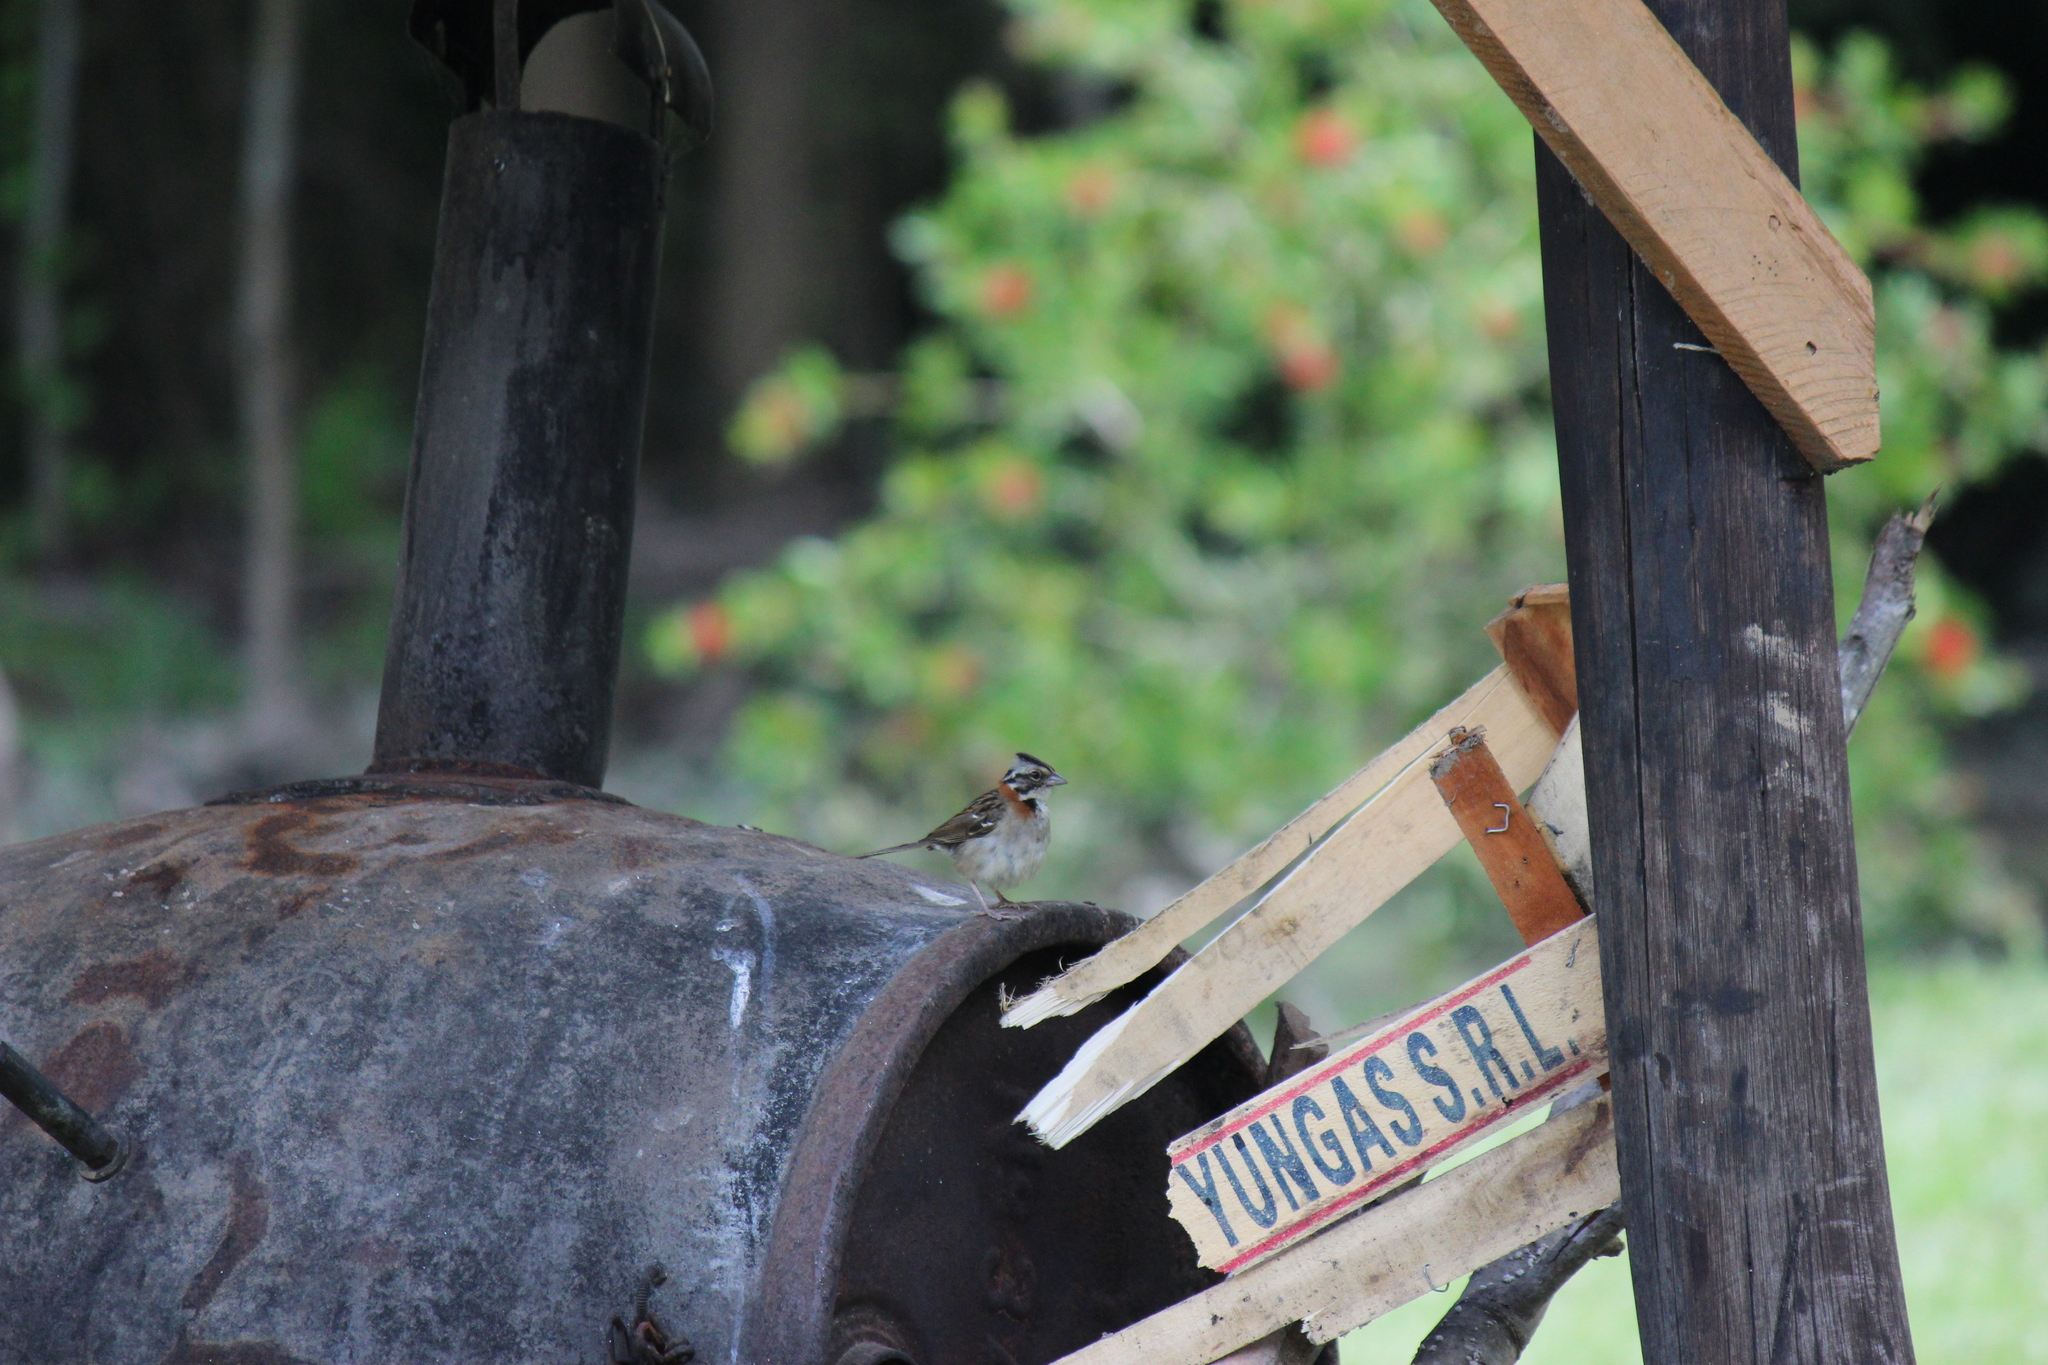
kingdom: Animalia
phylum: Chordata
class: Aves
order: Passeriformes
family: Passerellidae
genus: Zonotrichia
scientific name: Zonotrichia capensis
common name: Rufous-collared sparrow
